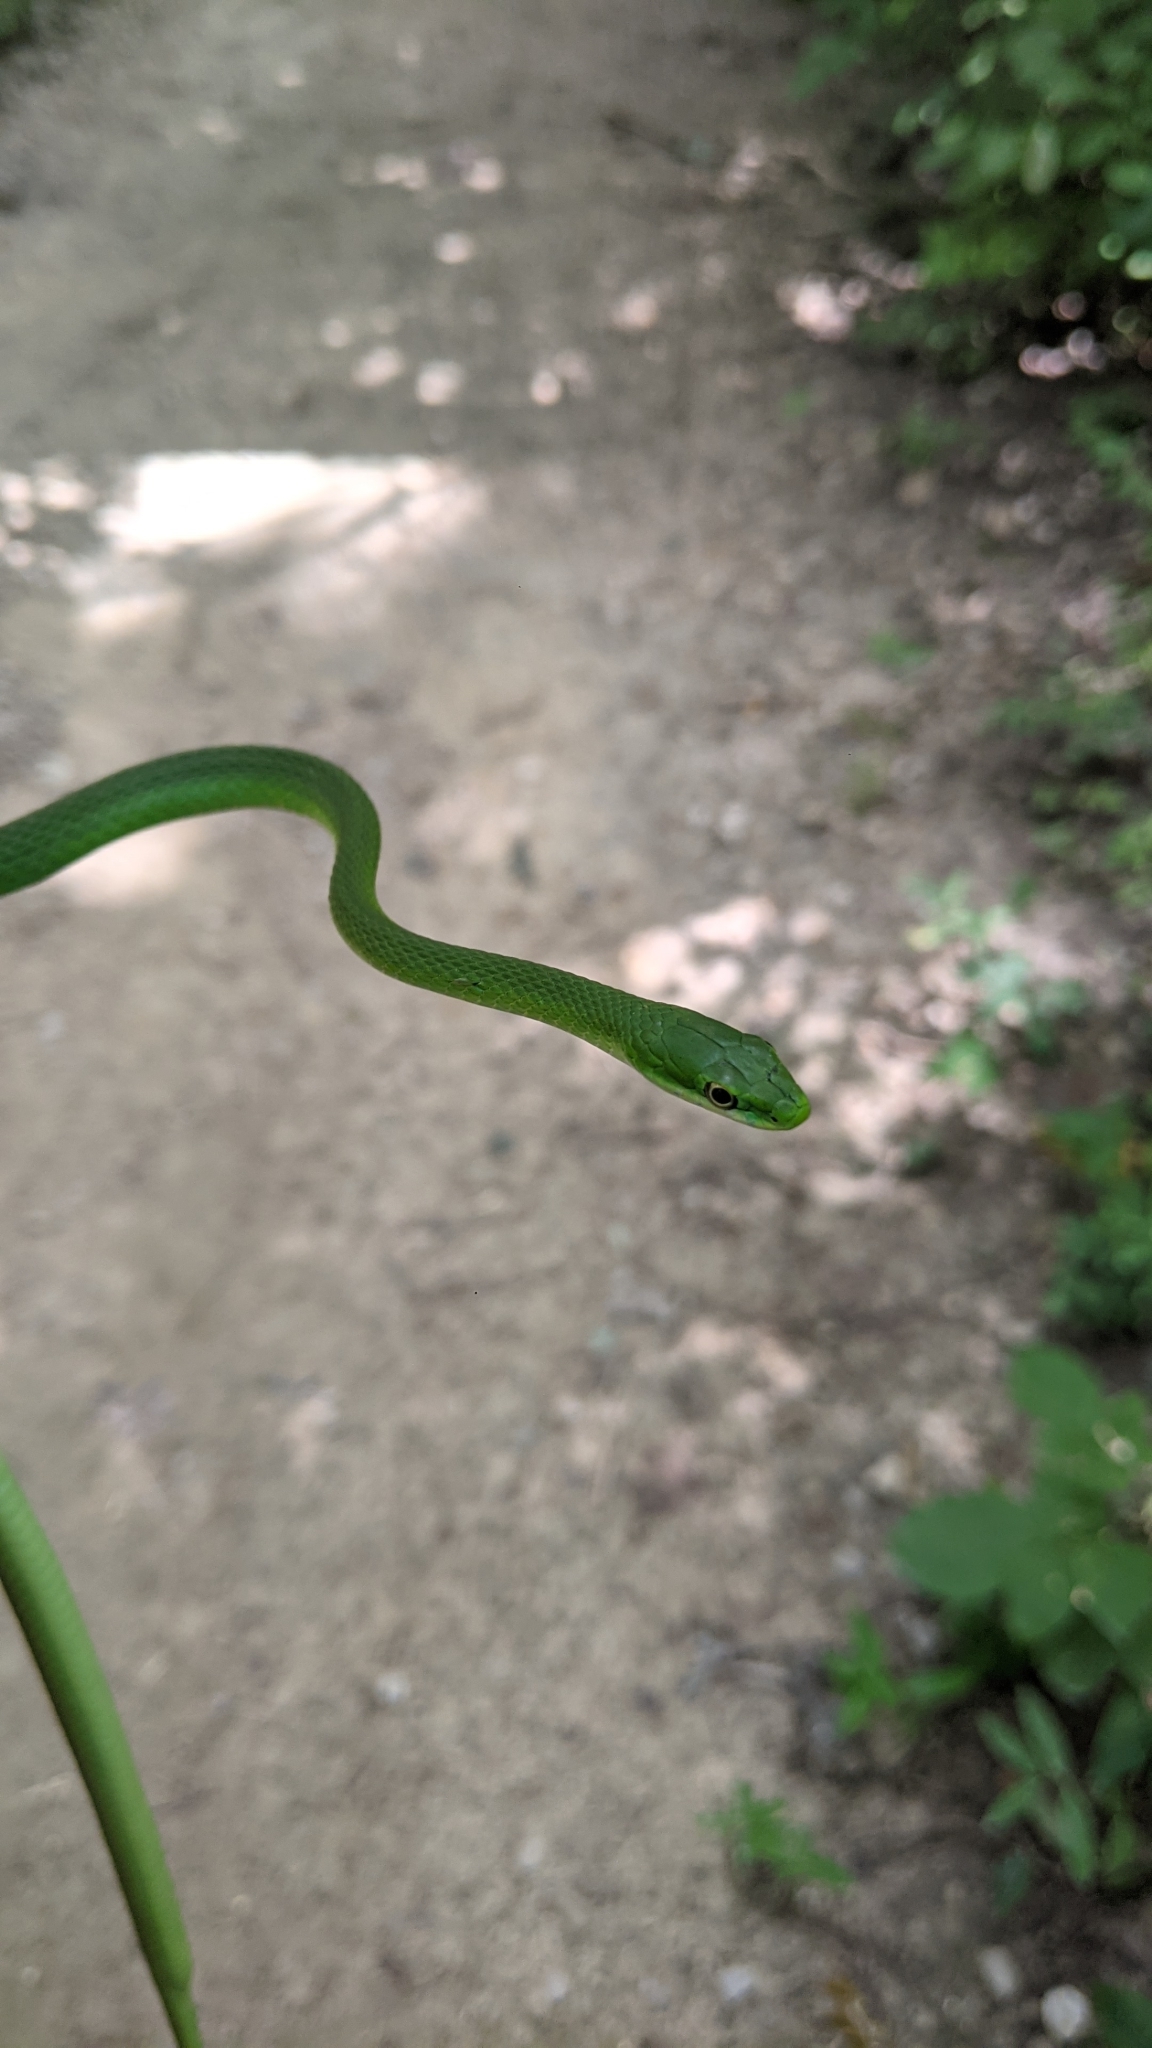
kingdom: Animalia
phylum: Chordata
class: Squamata
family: Colubridae
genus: Opheodrys
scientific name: Opheodrys aestivus
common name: Rough greensnake
